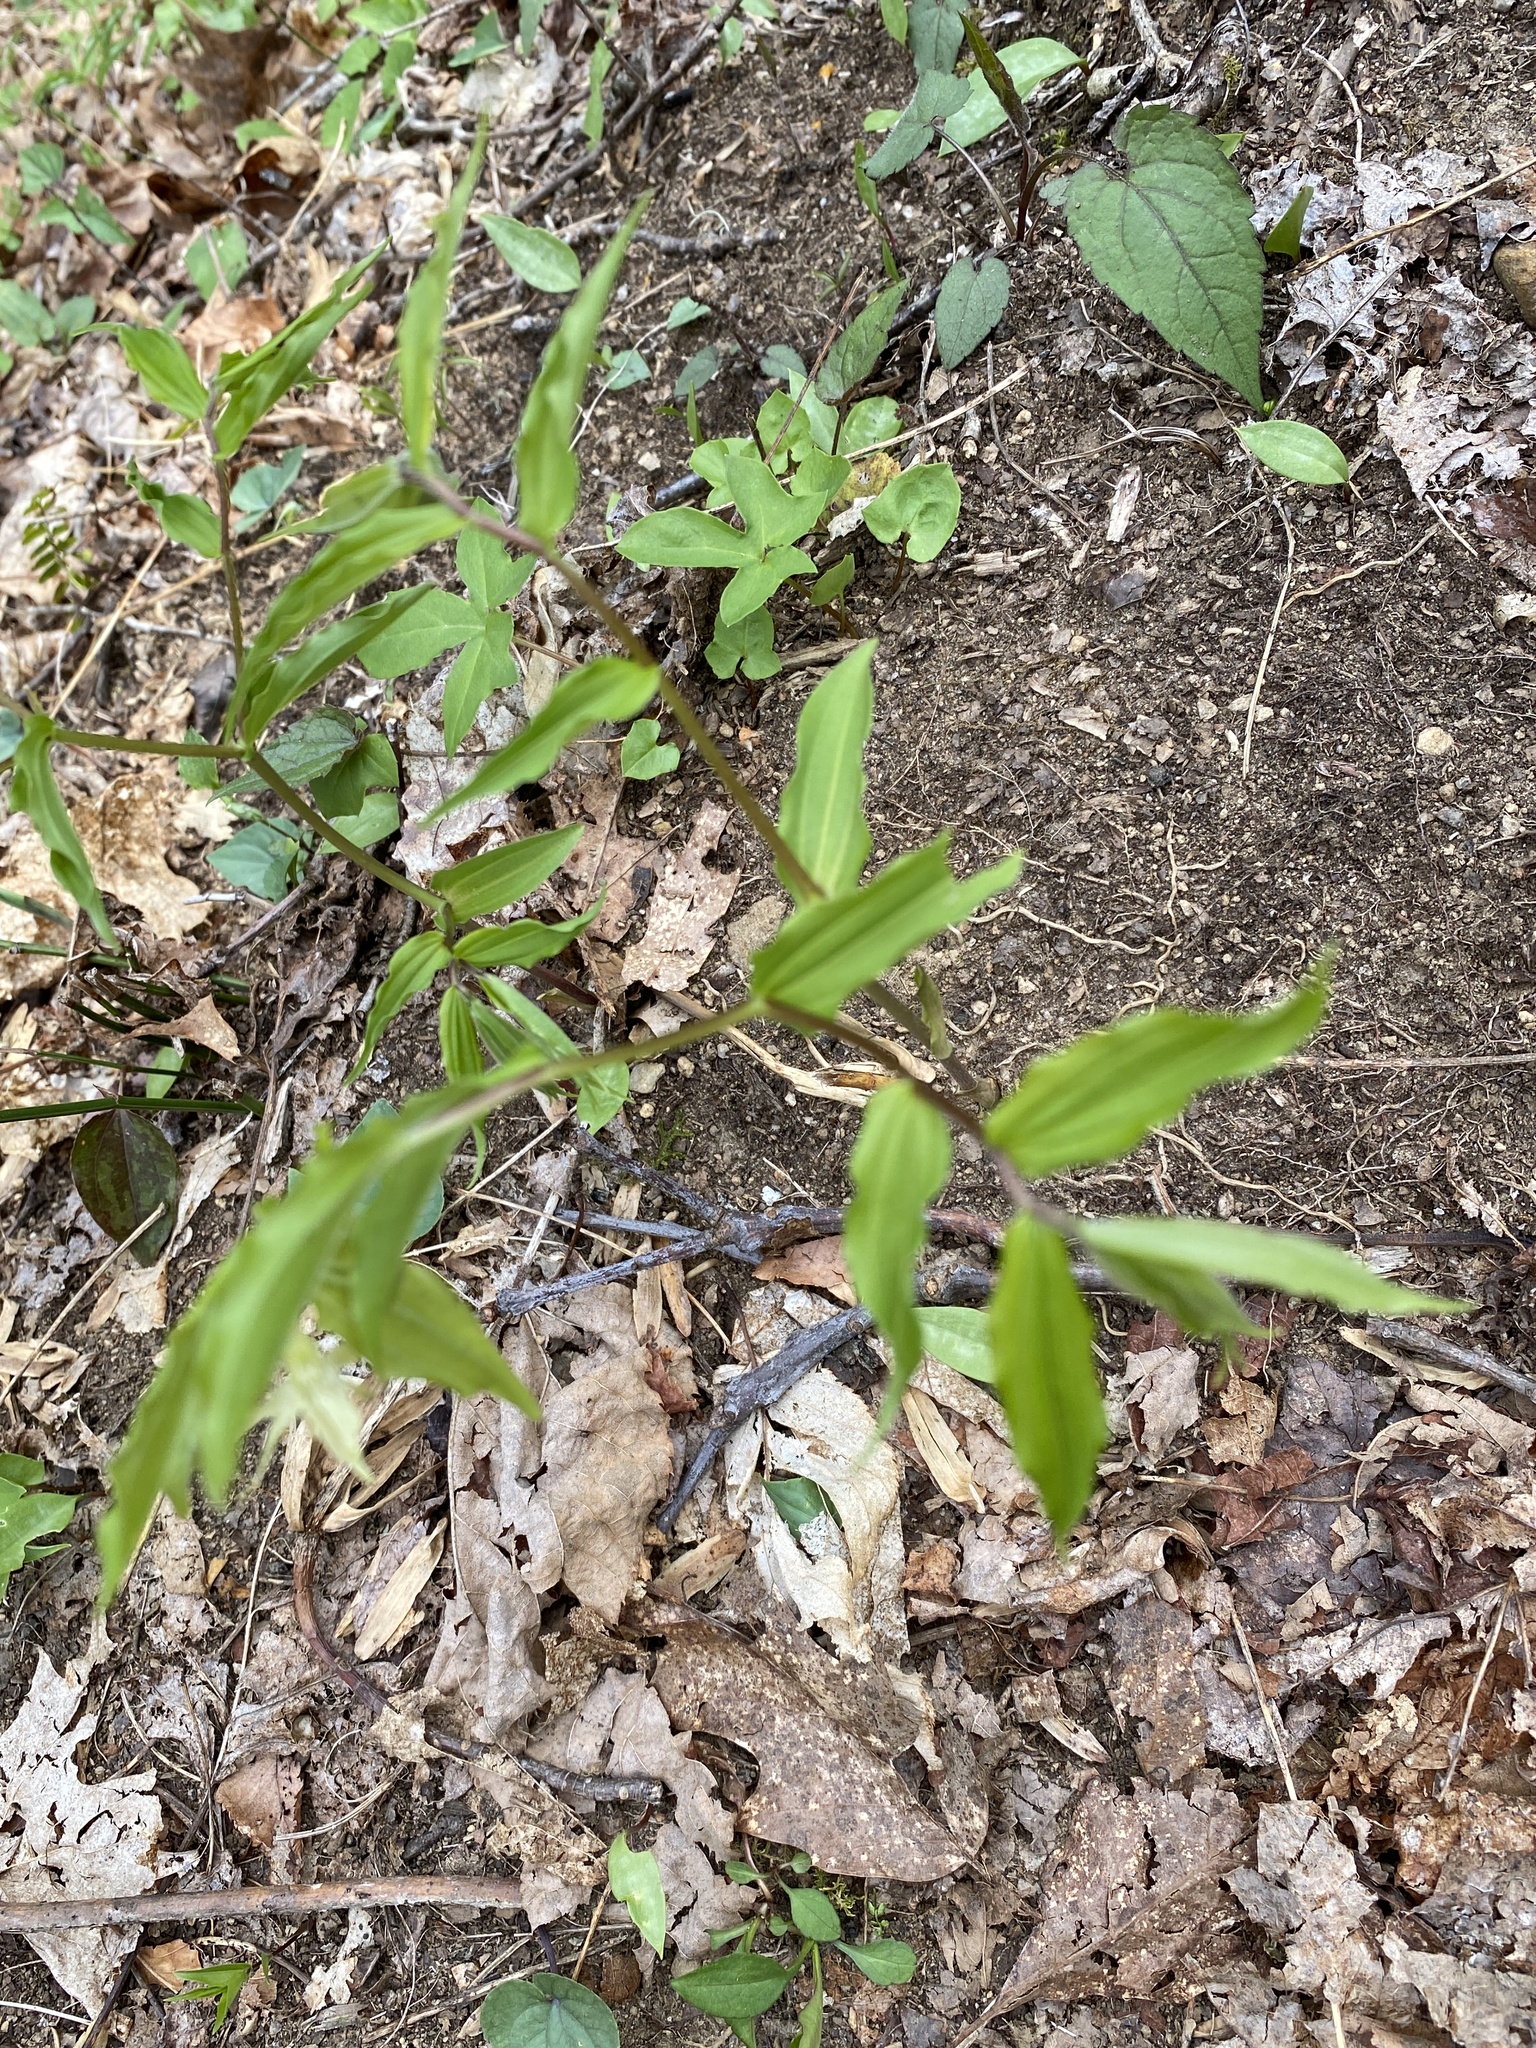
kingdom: Plantae
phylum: Tracheophyta
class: Liliopsida
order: Liliales
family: Liliaceae
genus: Prosartes
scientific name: Prosartes lanuginosa
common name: Hairy mandarin
